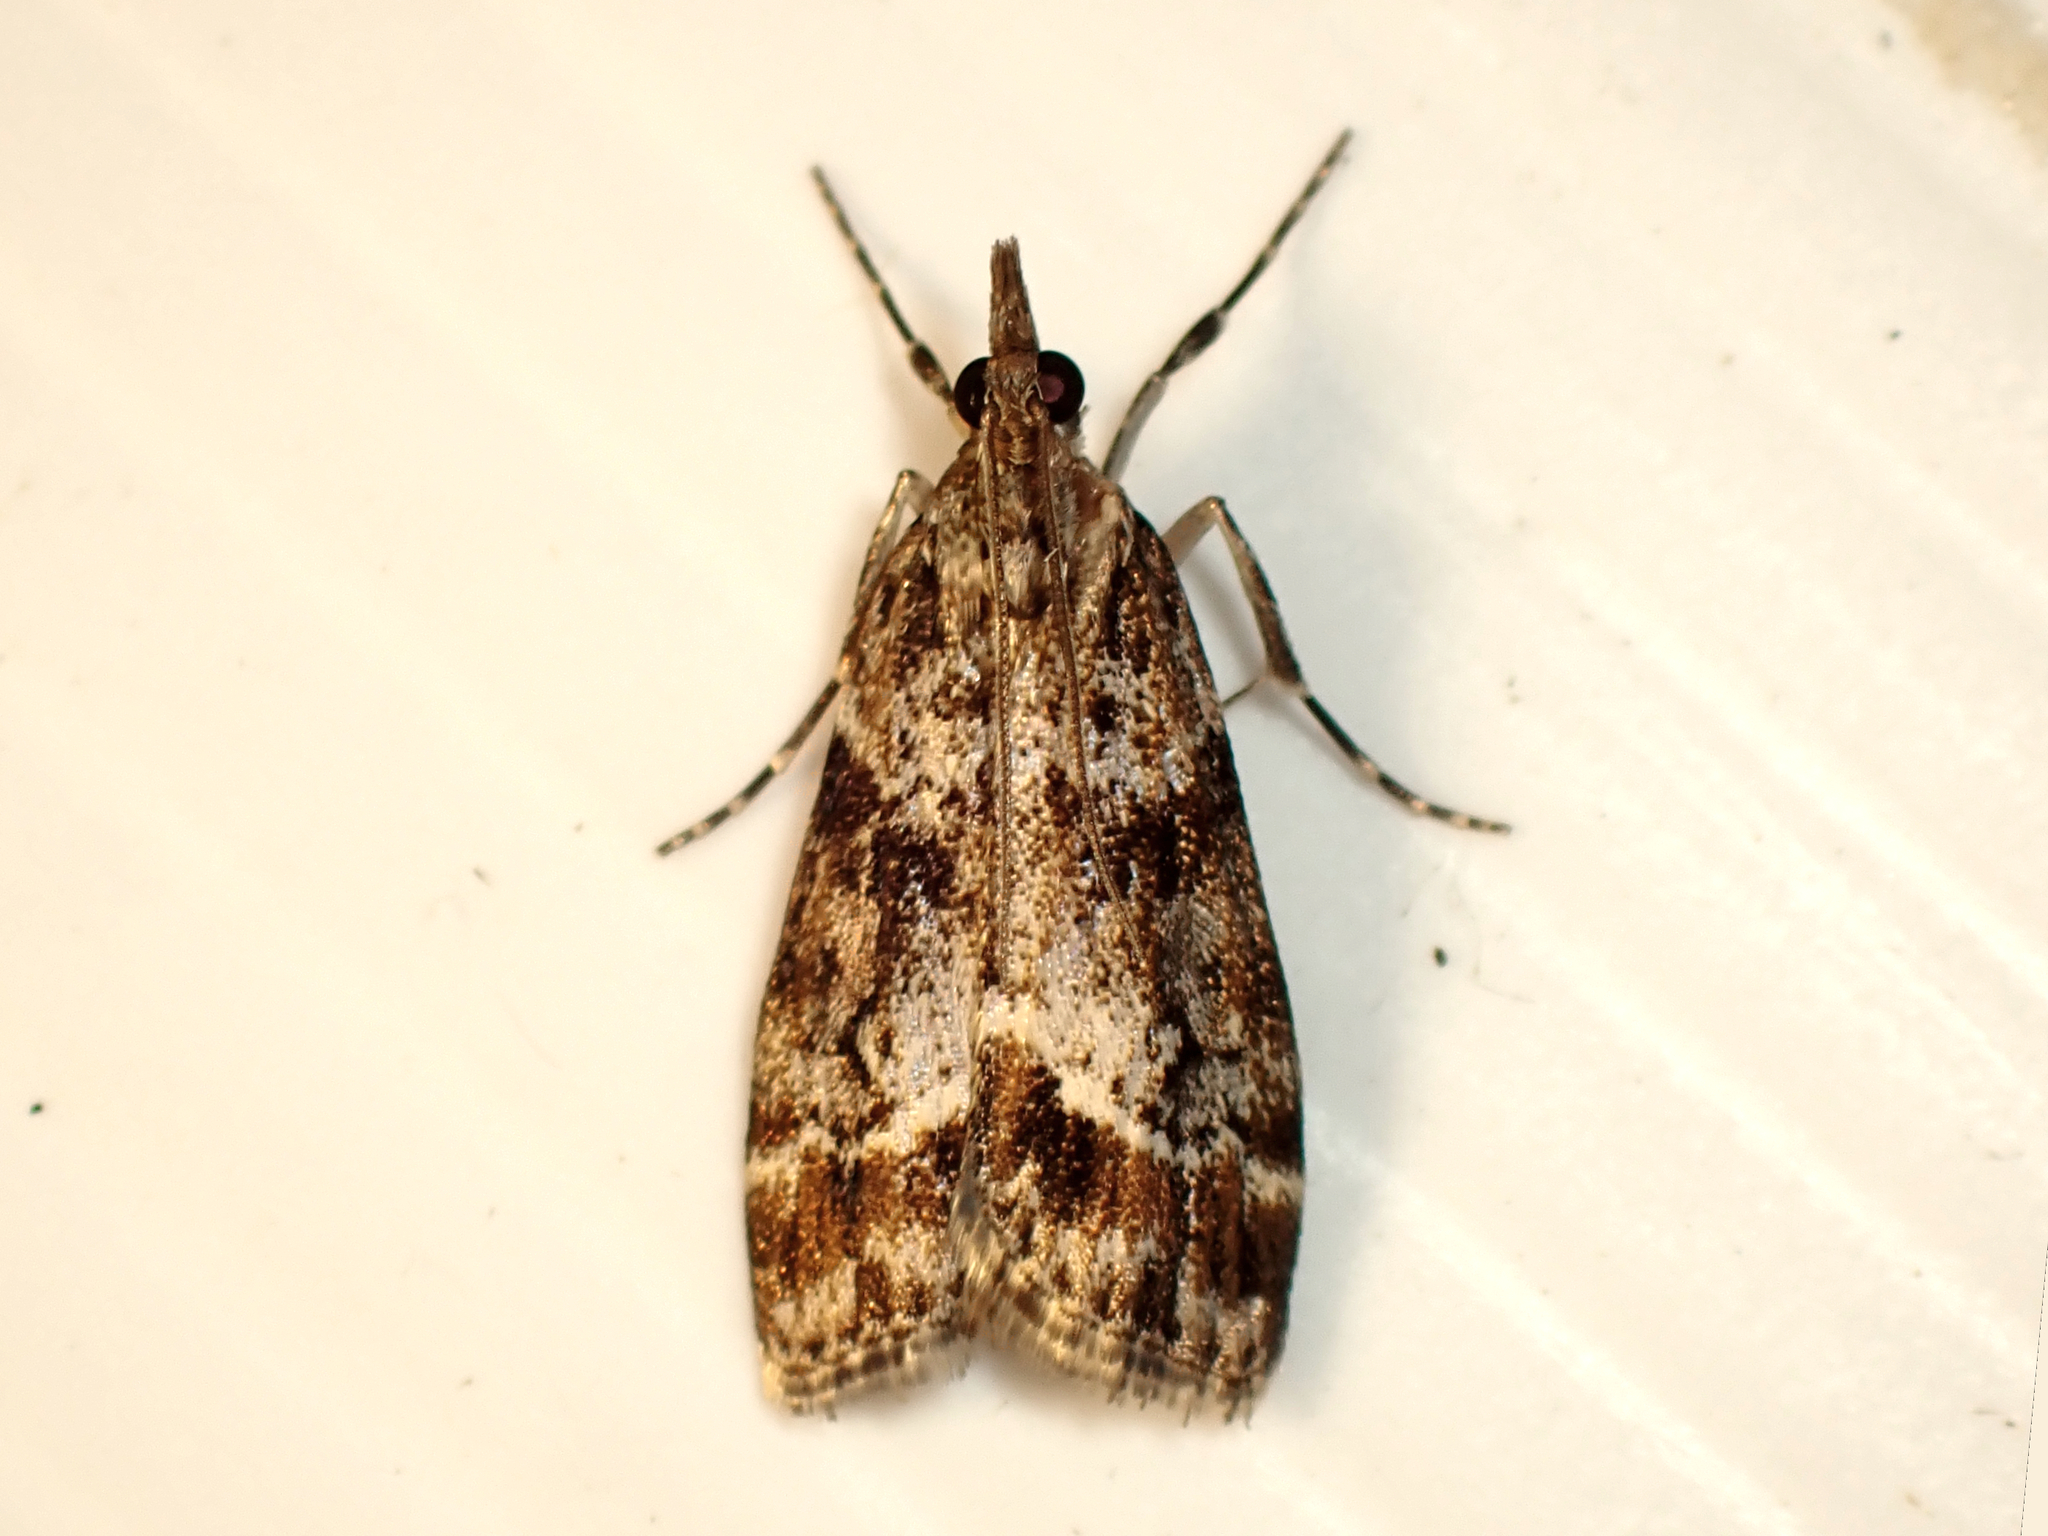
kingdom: Animalia
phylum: Arthropoda
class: Insecta
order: Lepidoptera
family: Crambidae
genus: Eudonia
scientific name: Eudonia legnota
